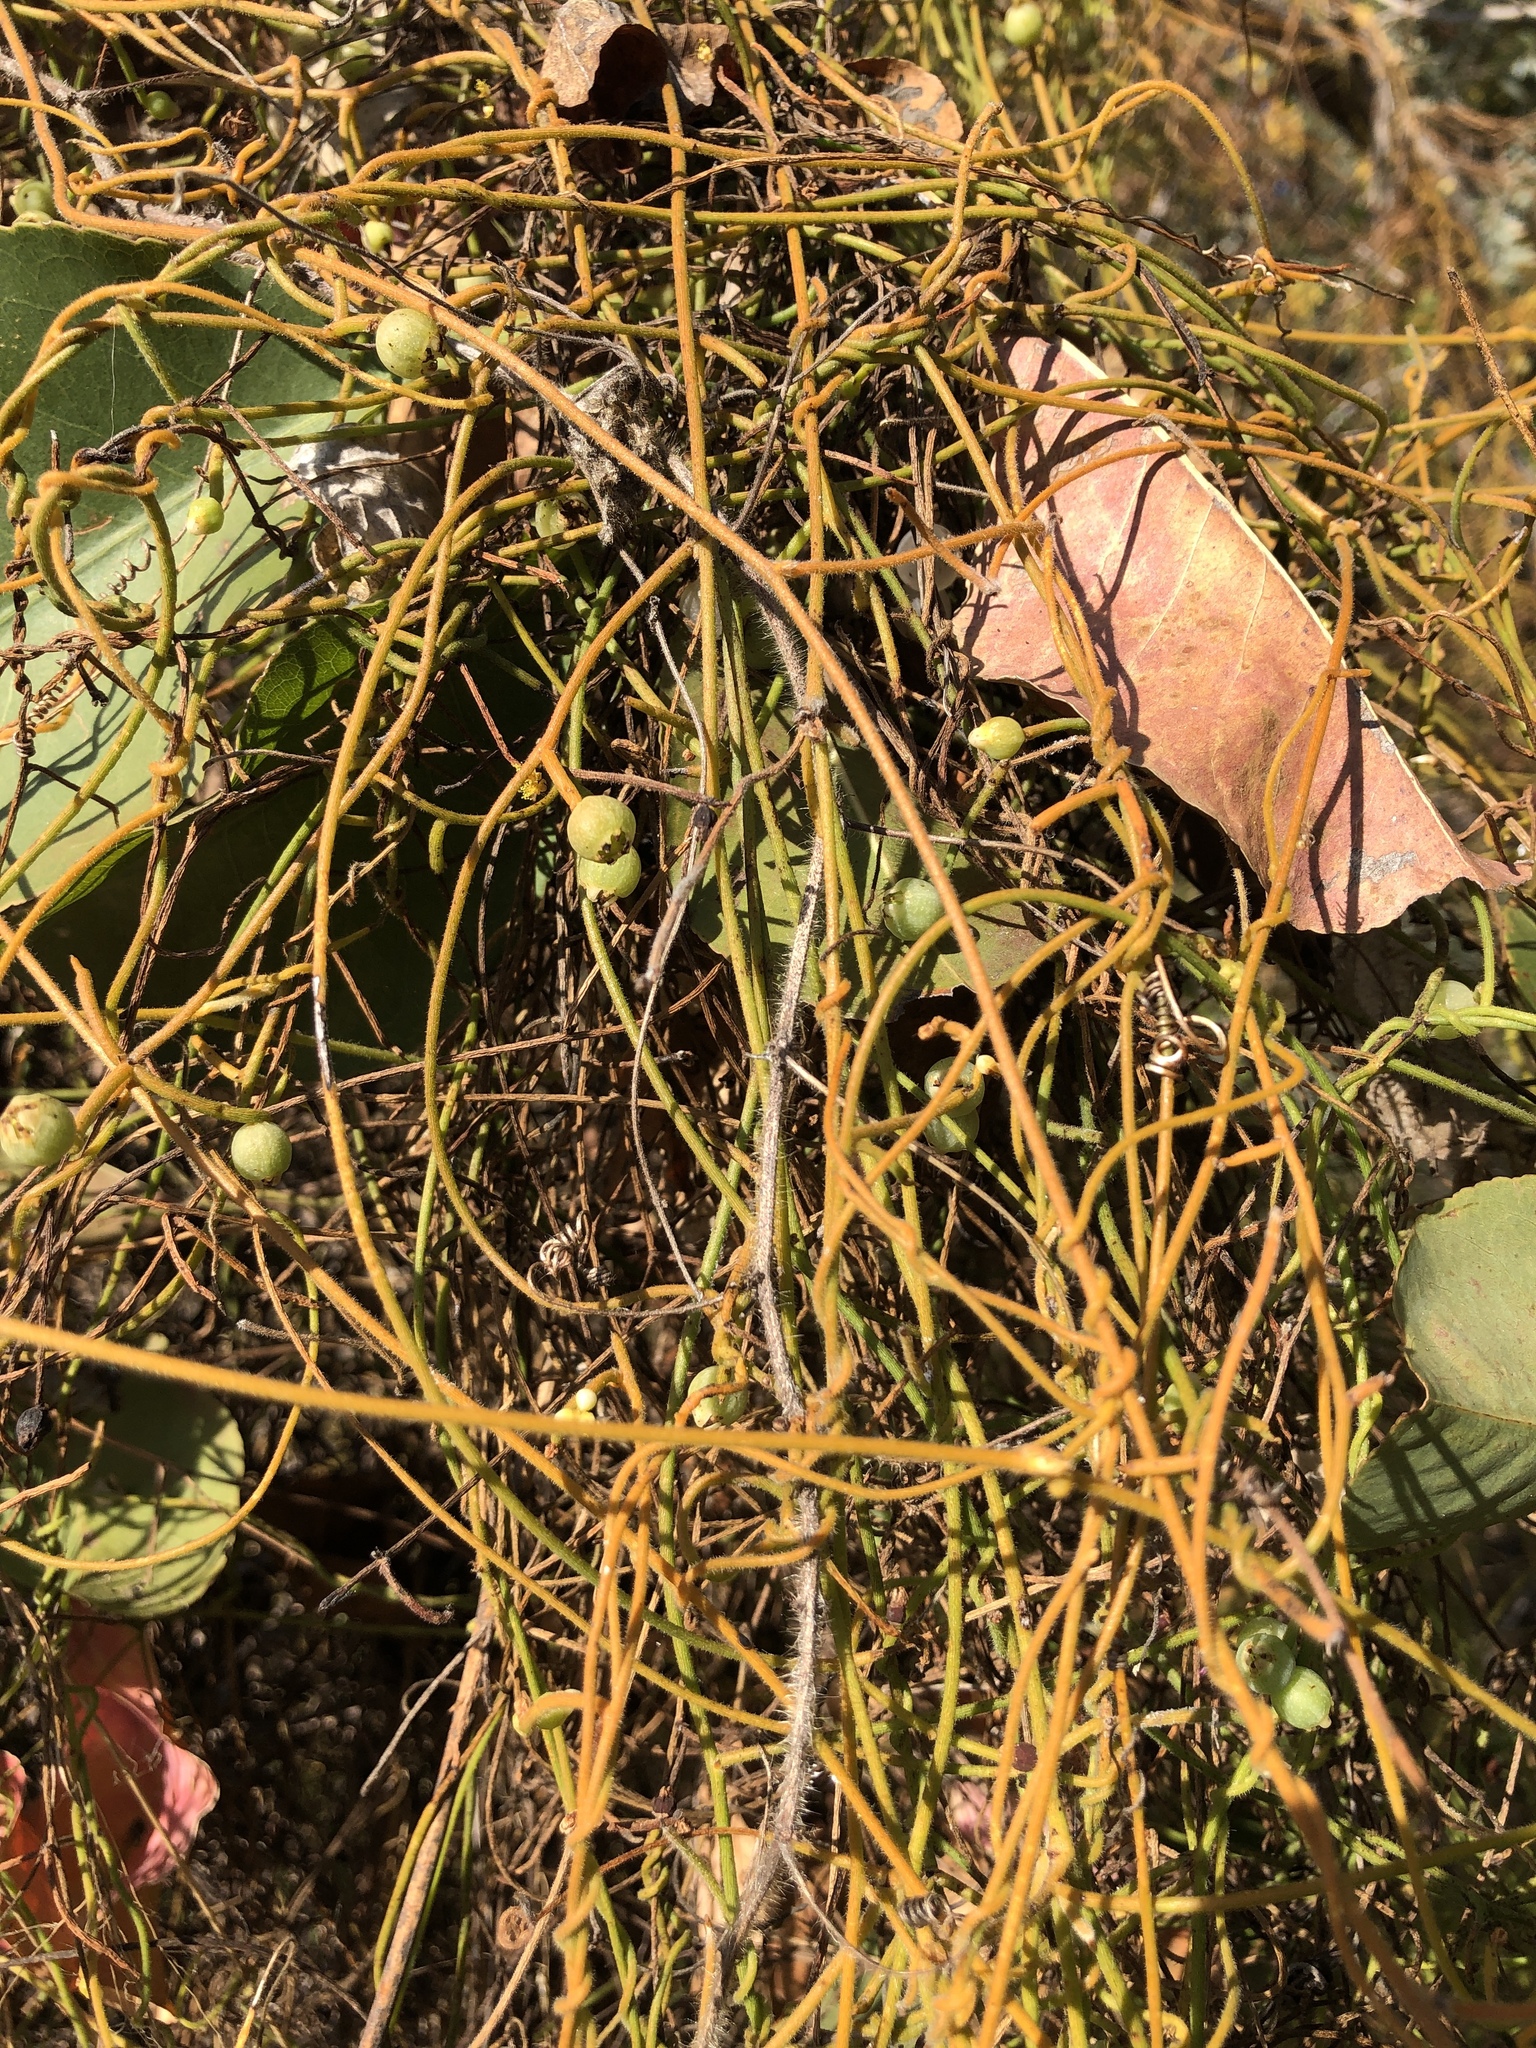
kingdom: Plantae
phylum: Tracheophyta
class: Magnoliopsida
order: Laurales
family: Lauraceae
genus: Cassytha
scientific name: Cassytha filiformis
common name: Dodder-laurel
